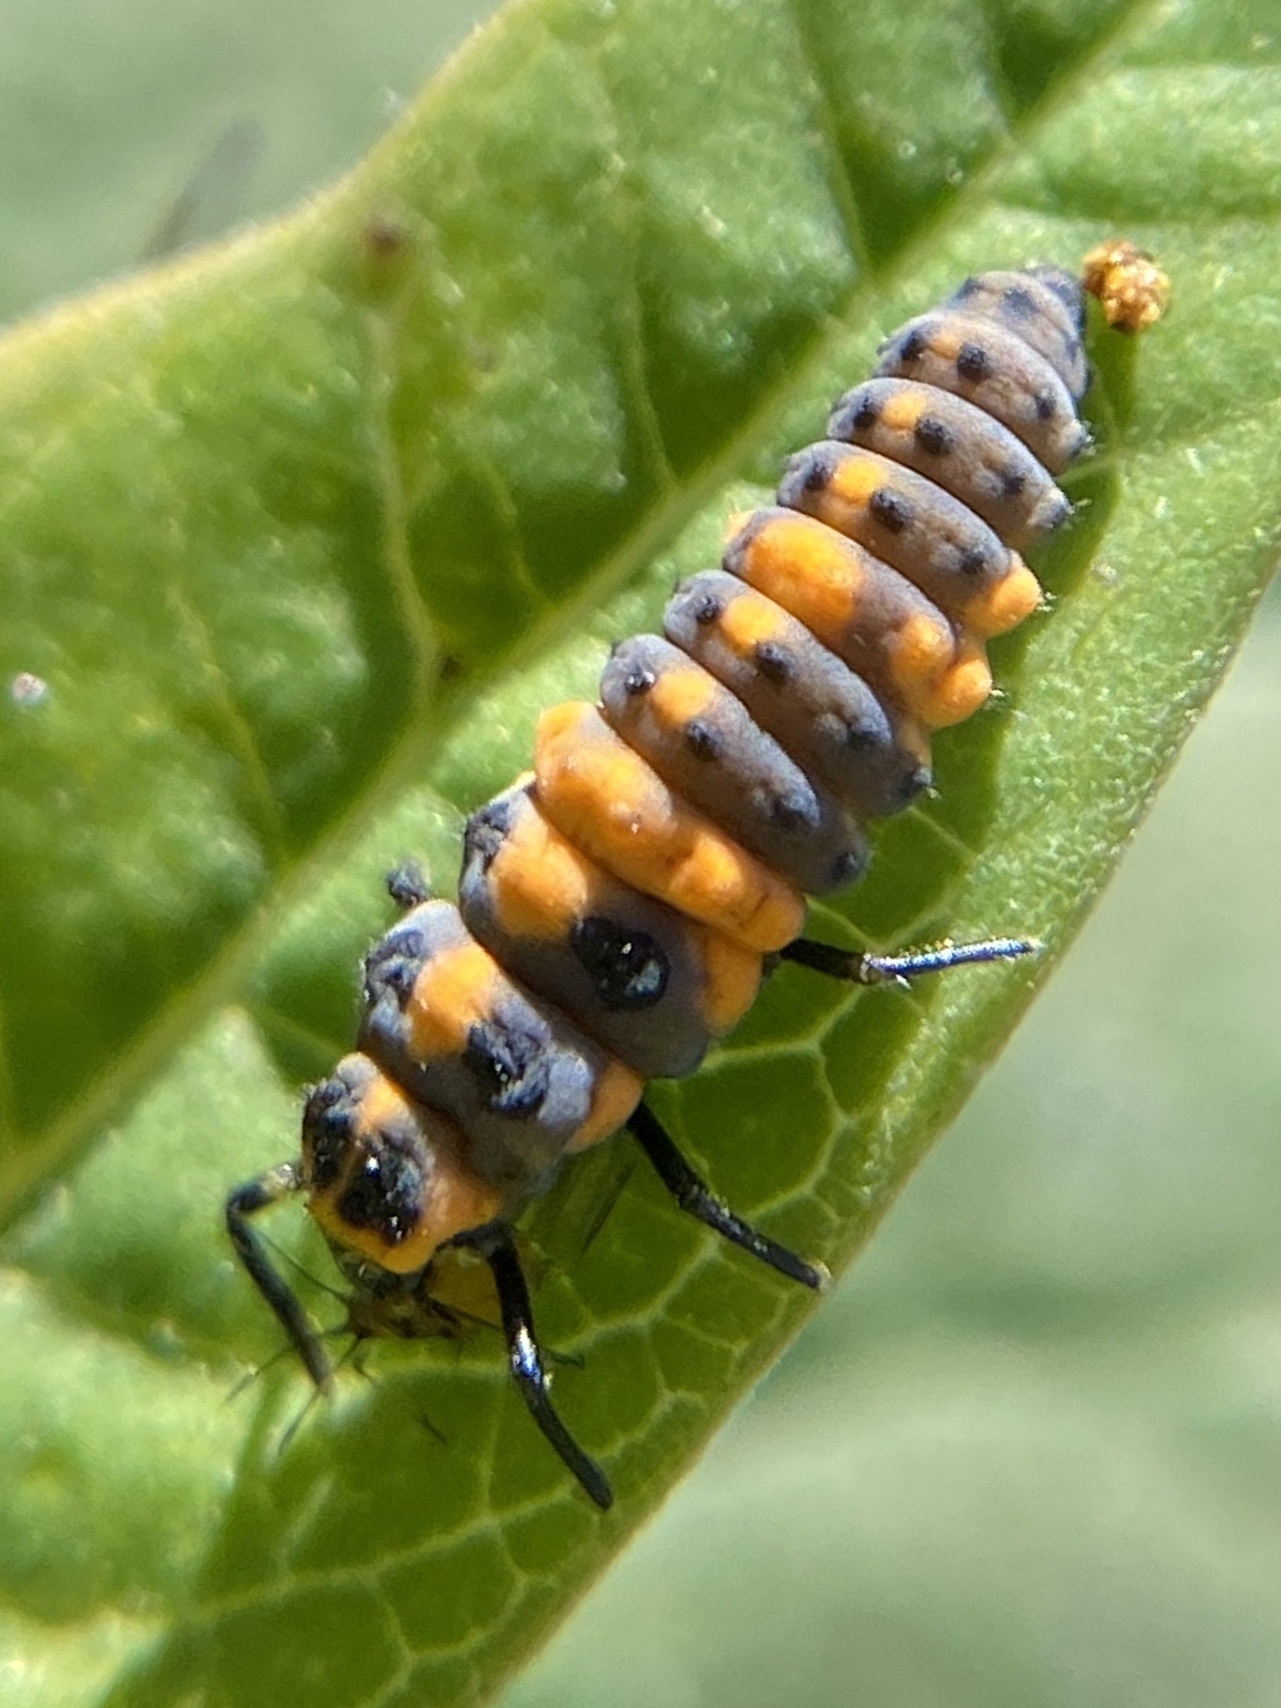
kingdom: Animalia
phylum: Arthropoda
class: Insecta
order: Coleoptera
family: Coccinellidae
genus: Cycloneda
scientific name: Cycloneda sanguinea
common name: Ladybird beetle
